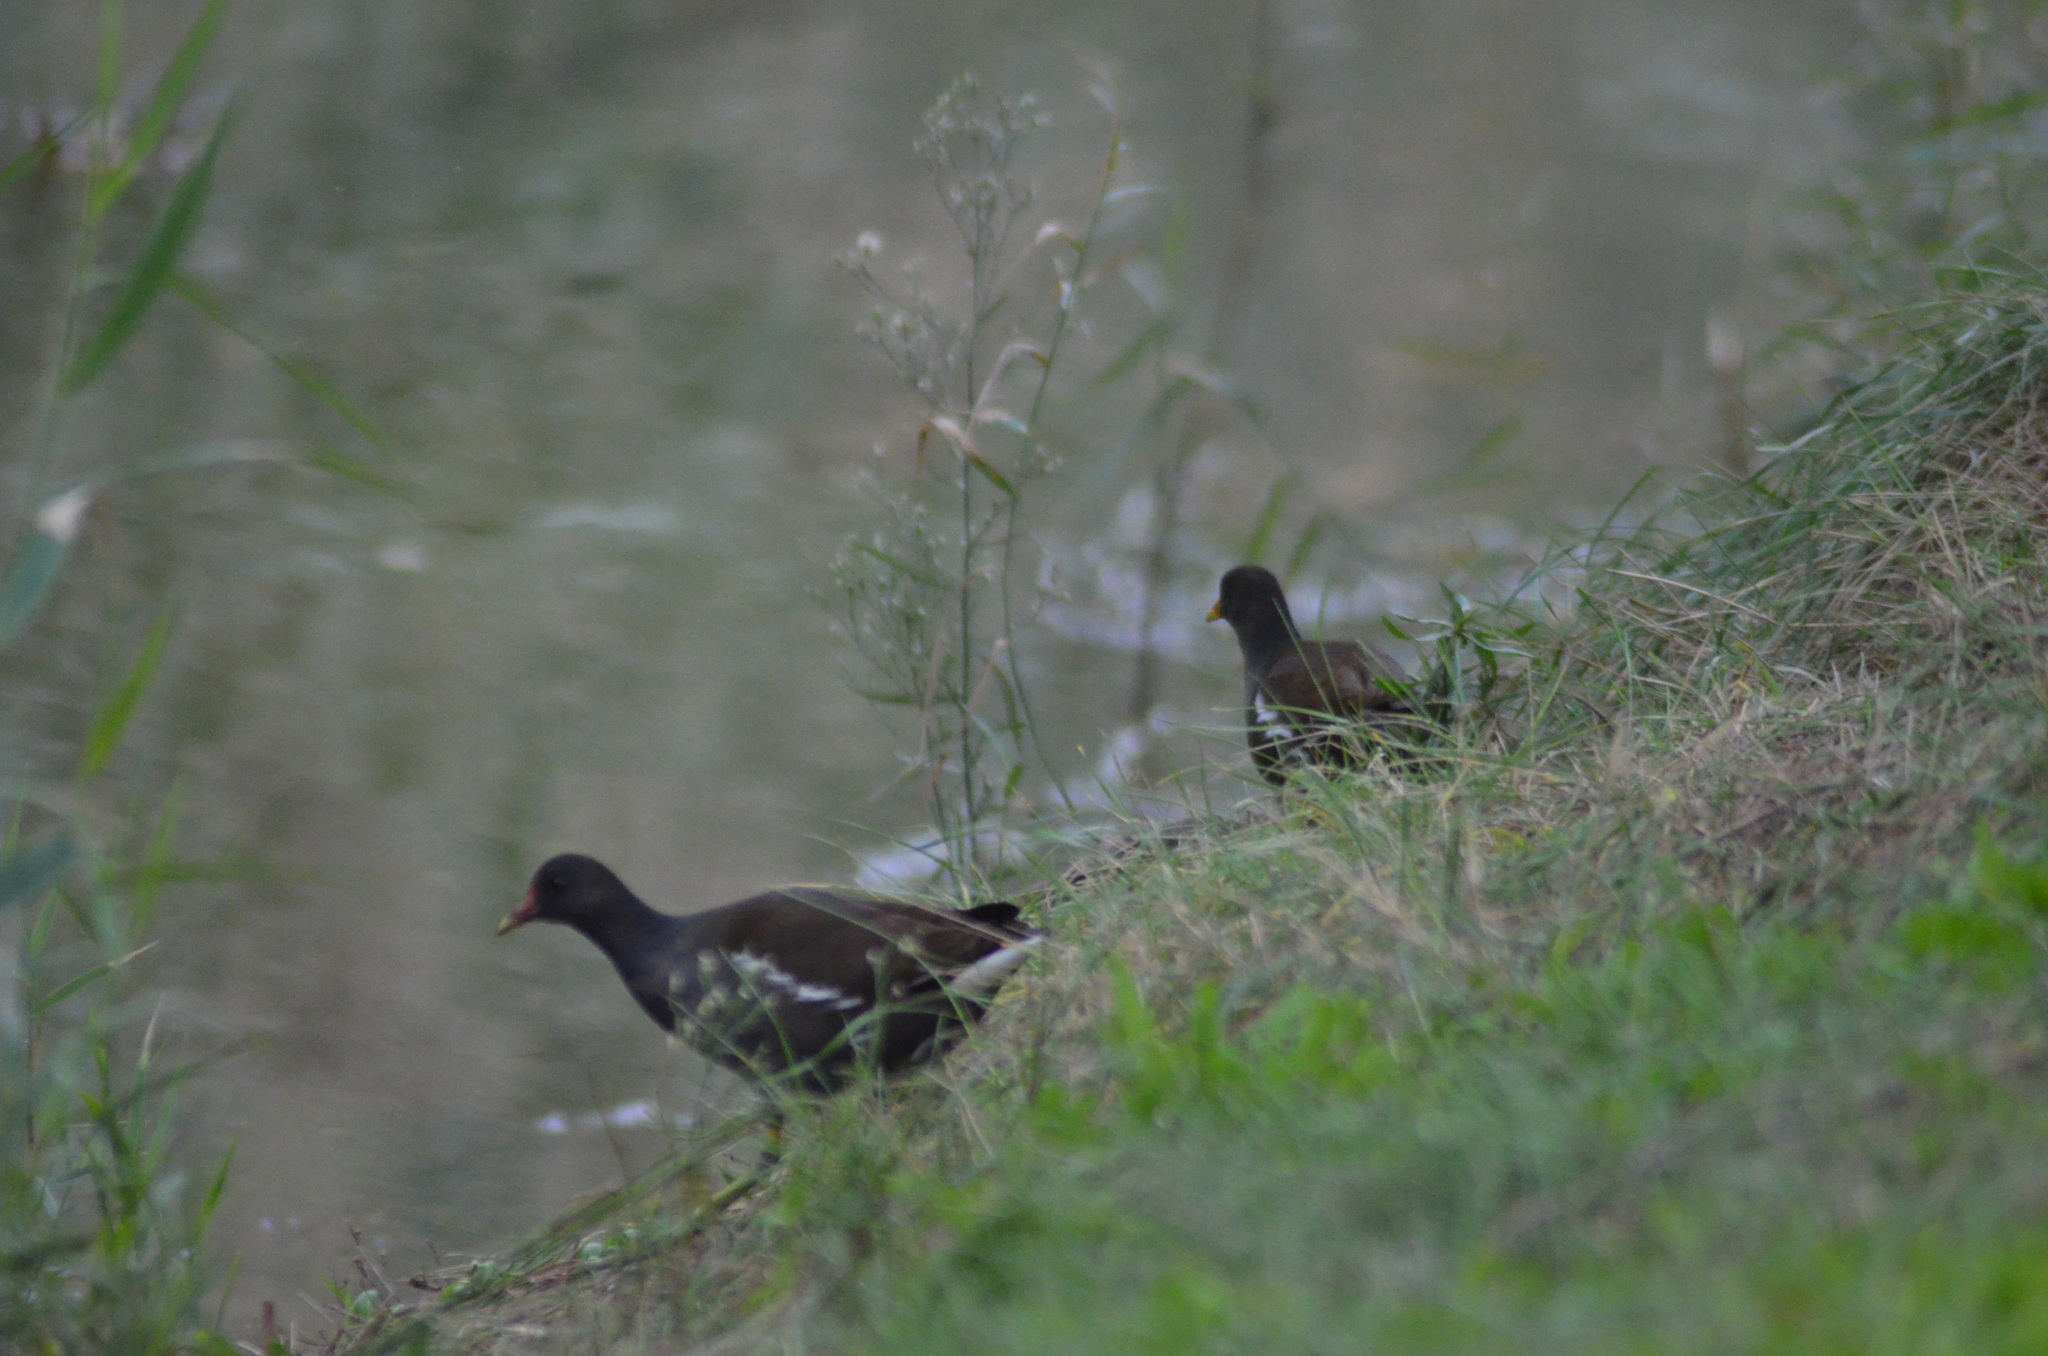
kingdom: Animalia
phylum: Chordata
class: Aves
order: Gruiformes
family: Rallidae
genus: Gallinula
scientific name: Gallinula chloropus
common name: Common moorhen
